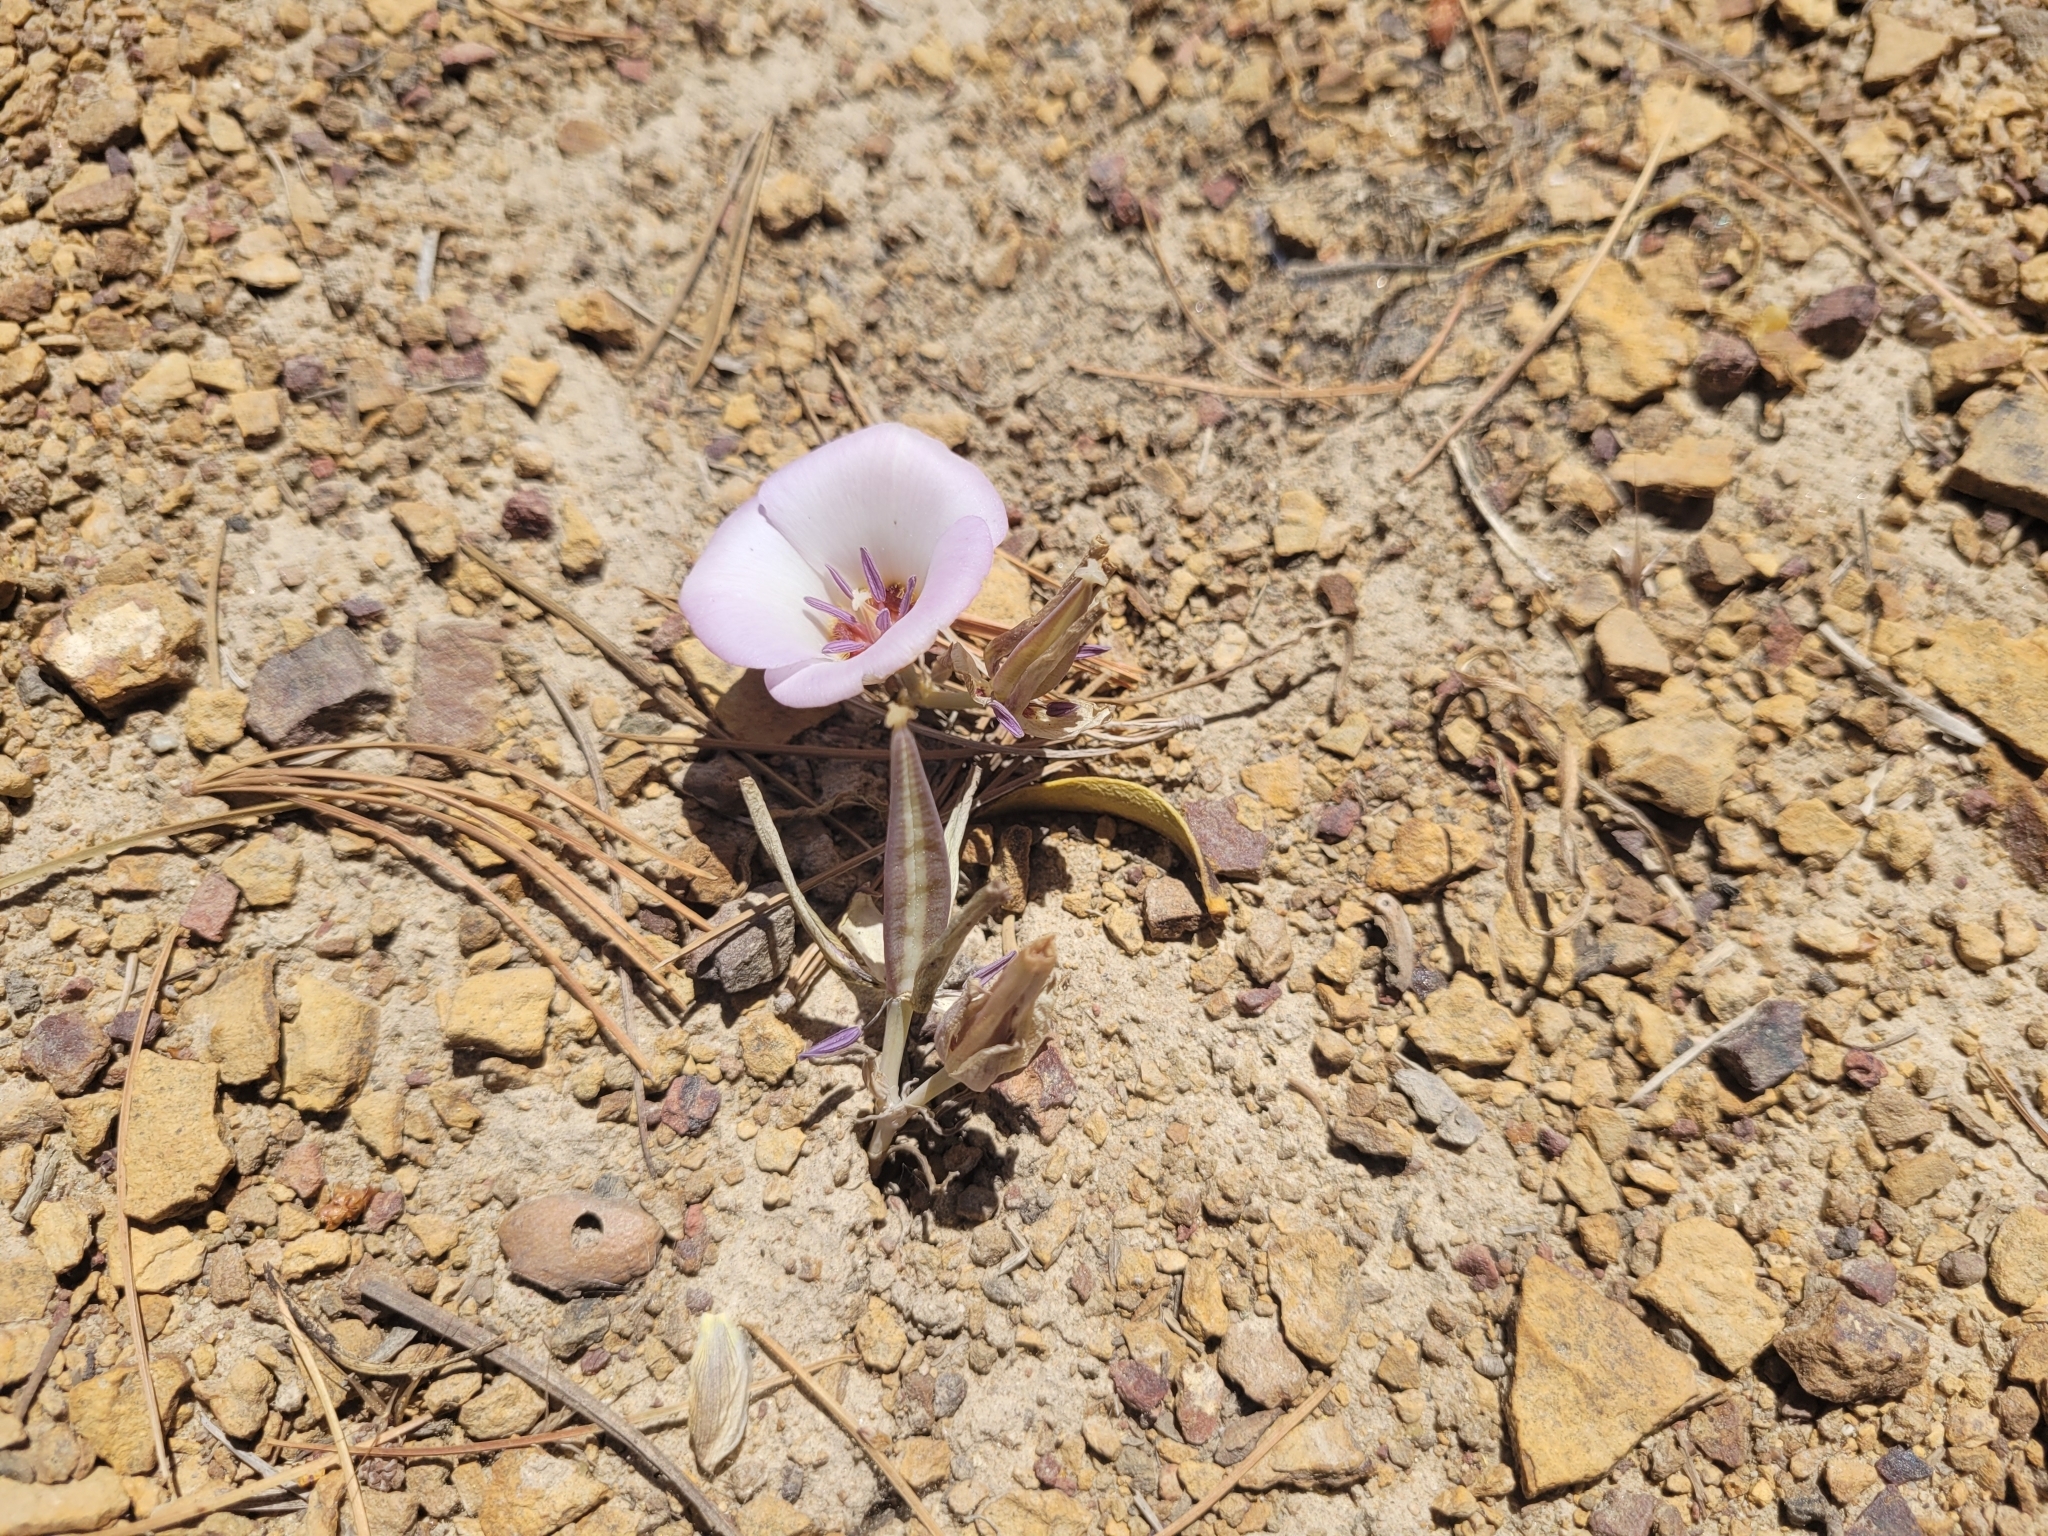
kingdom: Plantae
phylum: Tracheophyta
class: Liliopsida
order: Liliales
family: Liliaceae
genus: Calochortus
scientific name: Calochortus invenustus
